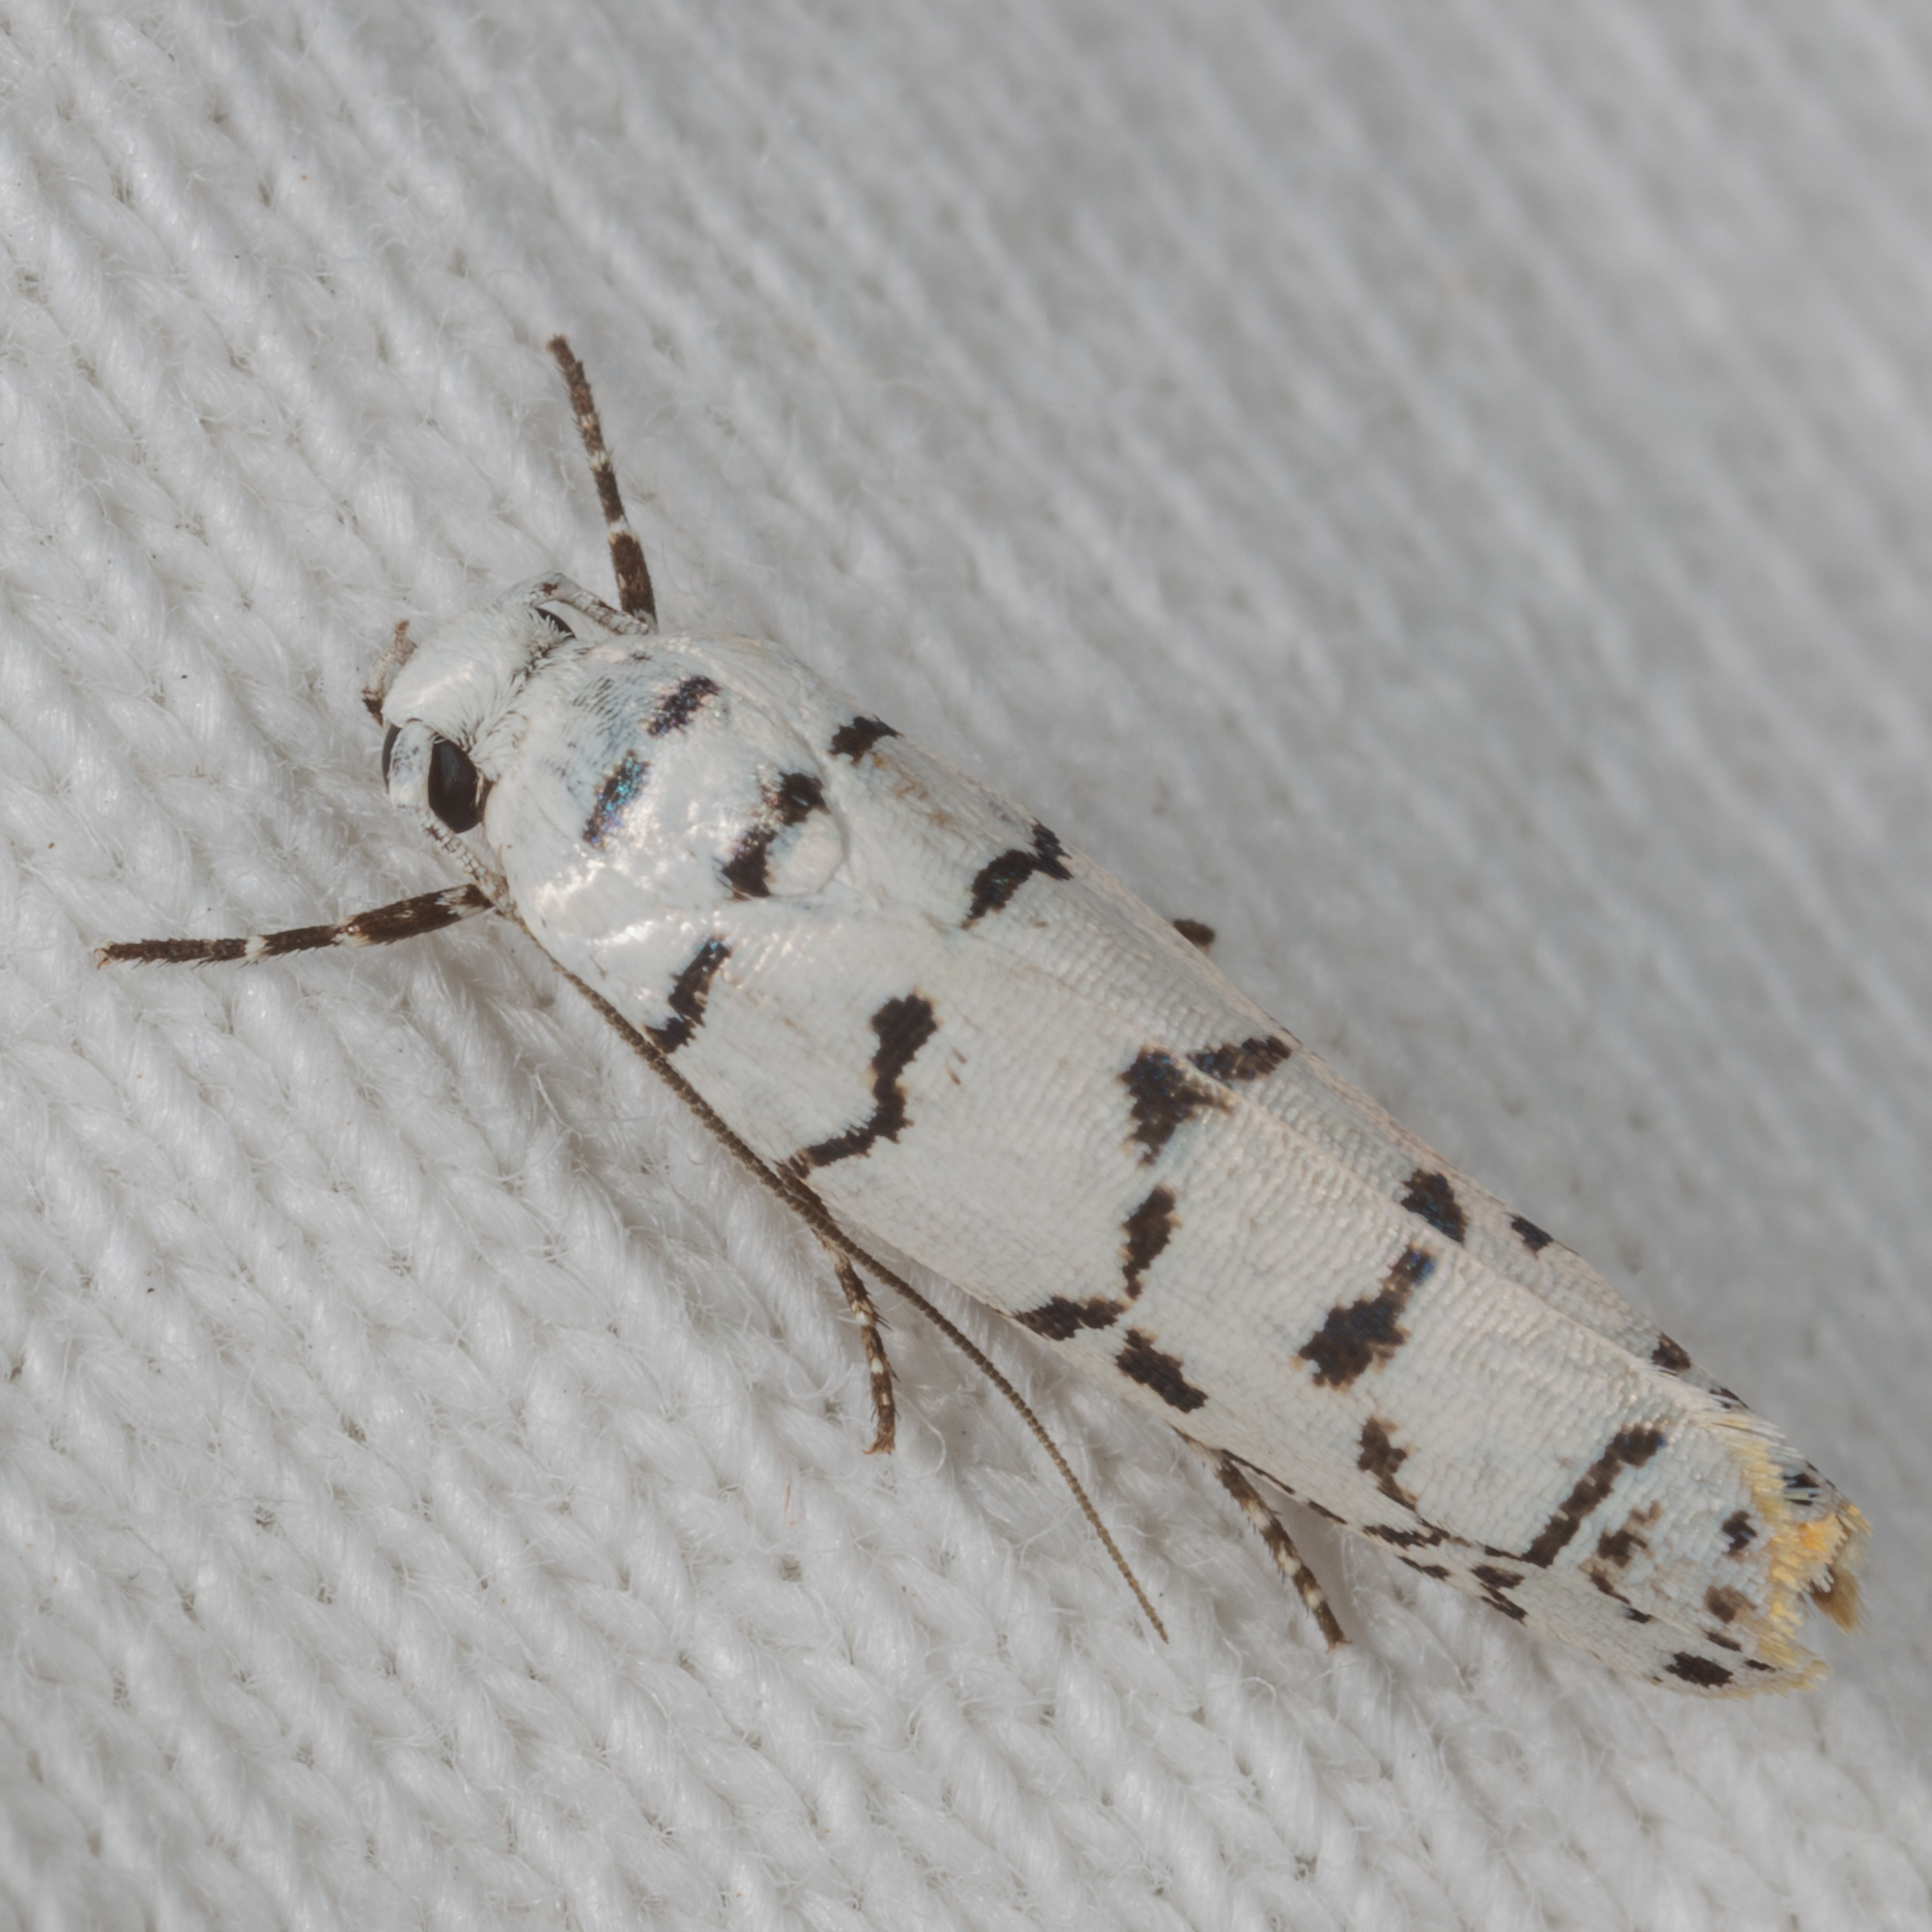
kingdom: Animalia
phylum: Arthropoda
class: Insecta
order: Lepidoptera
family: Ethmiidae
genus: Ethmia
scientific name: Ethmia delliella
